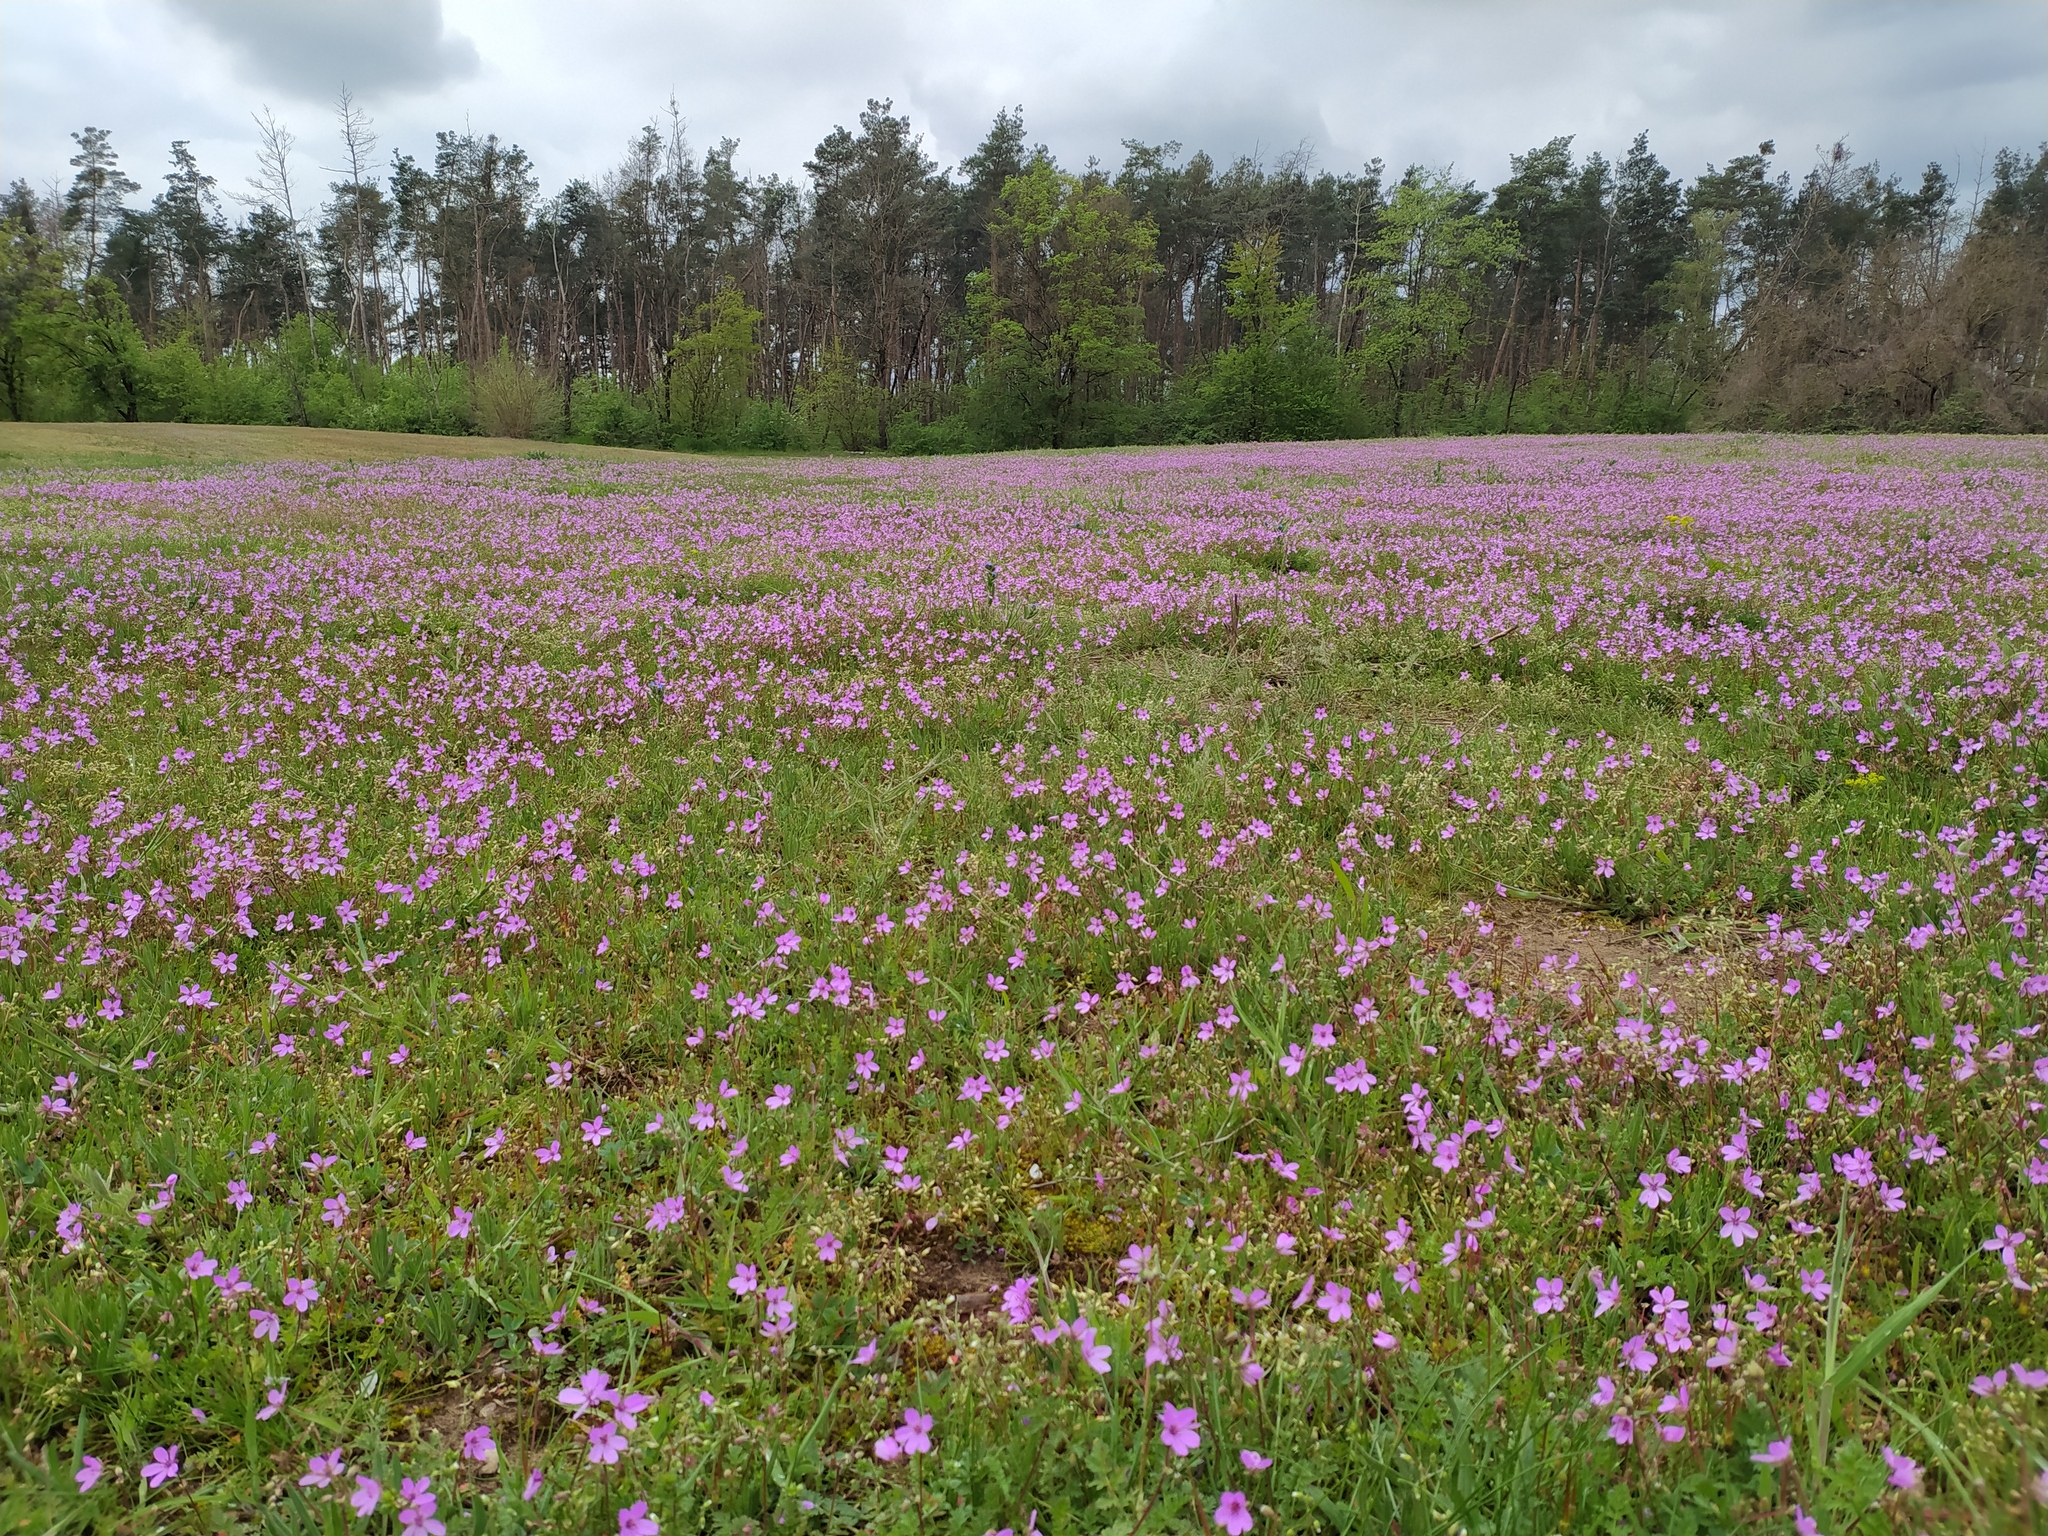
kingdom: Plantae
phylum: Tracheophyta
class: Magnoliopsida
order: Geraniales
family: Geraniaceae
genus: Erodium
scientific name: Erodium cicutarium
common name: Common stork's-bill
